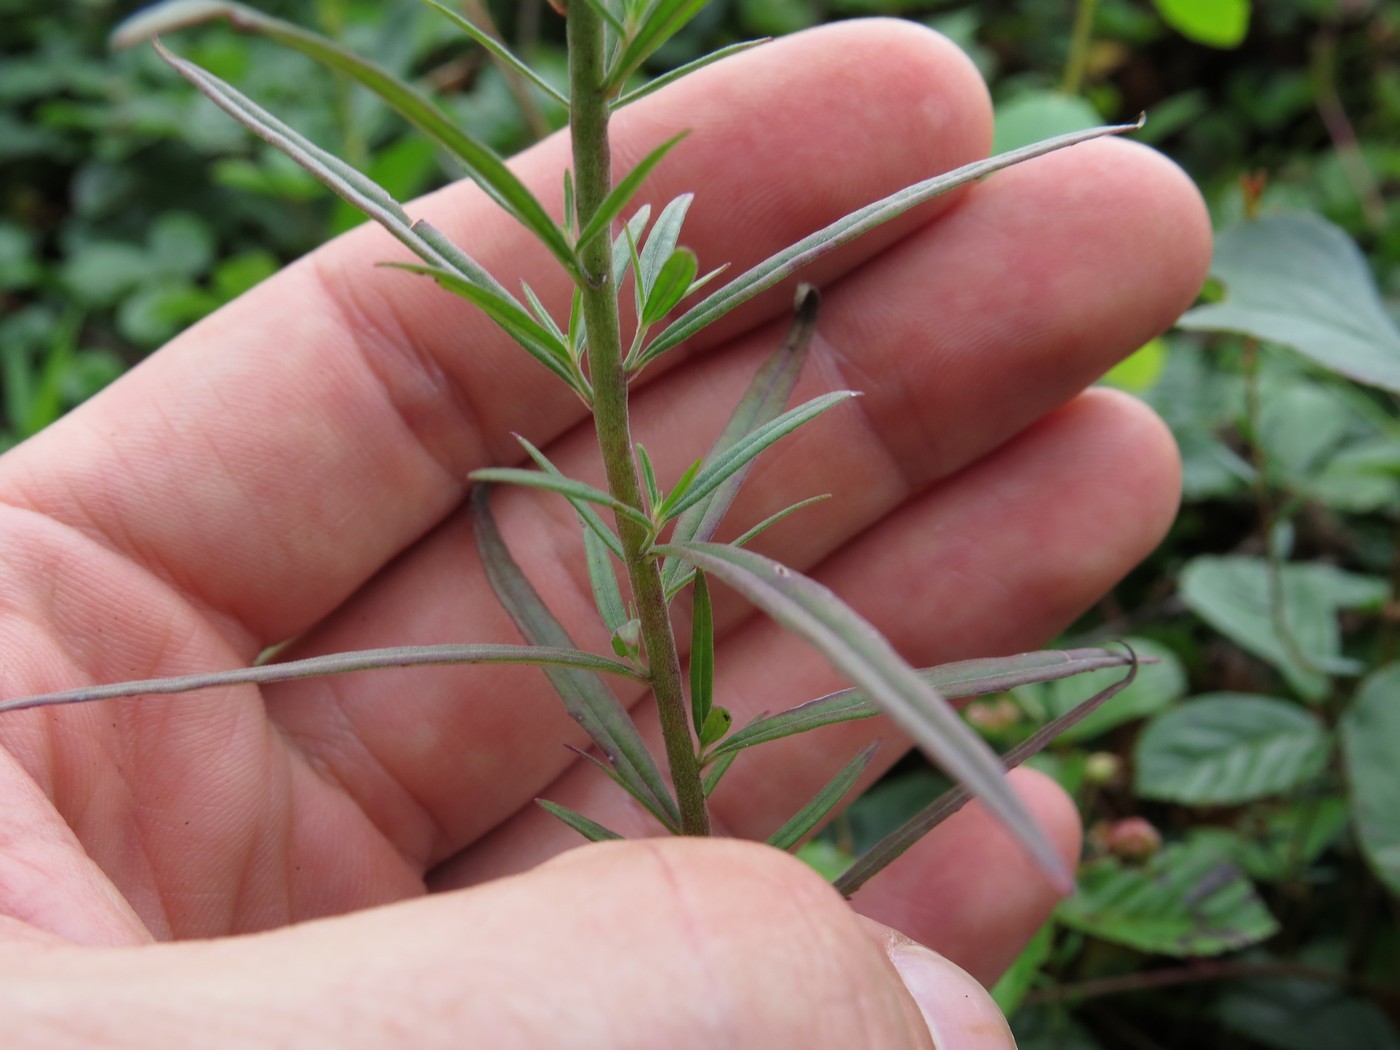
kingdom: Plantae
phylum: Tracheophyta
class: Magnoliopsida
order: Myrtales
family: Onagraceae
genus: Epilobium
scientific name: Epilobium leptophyllum
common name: Bog willowherb
